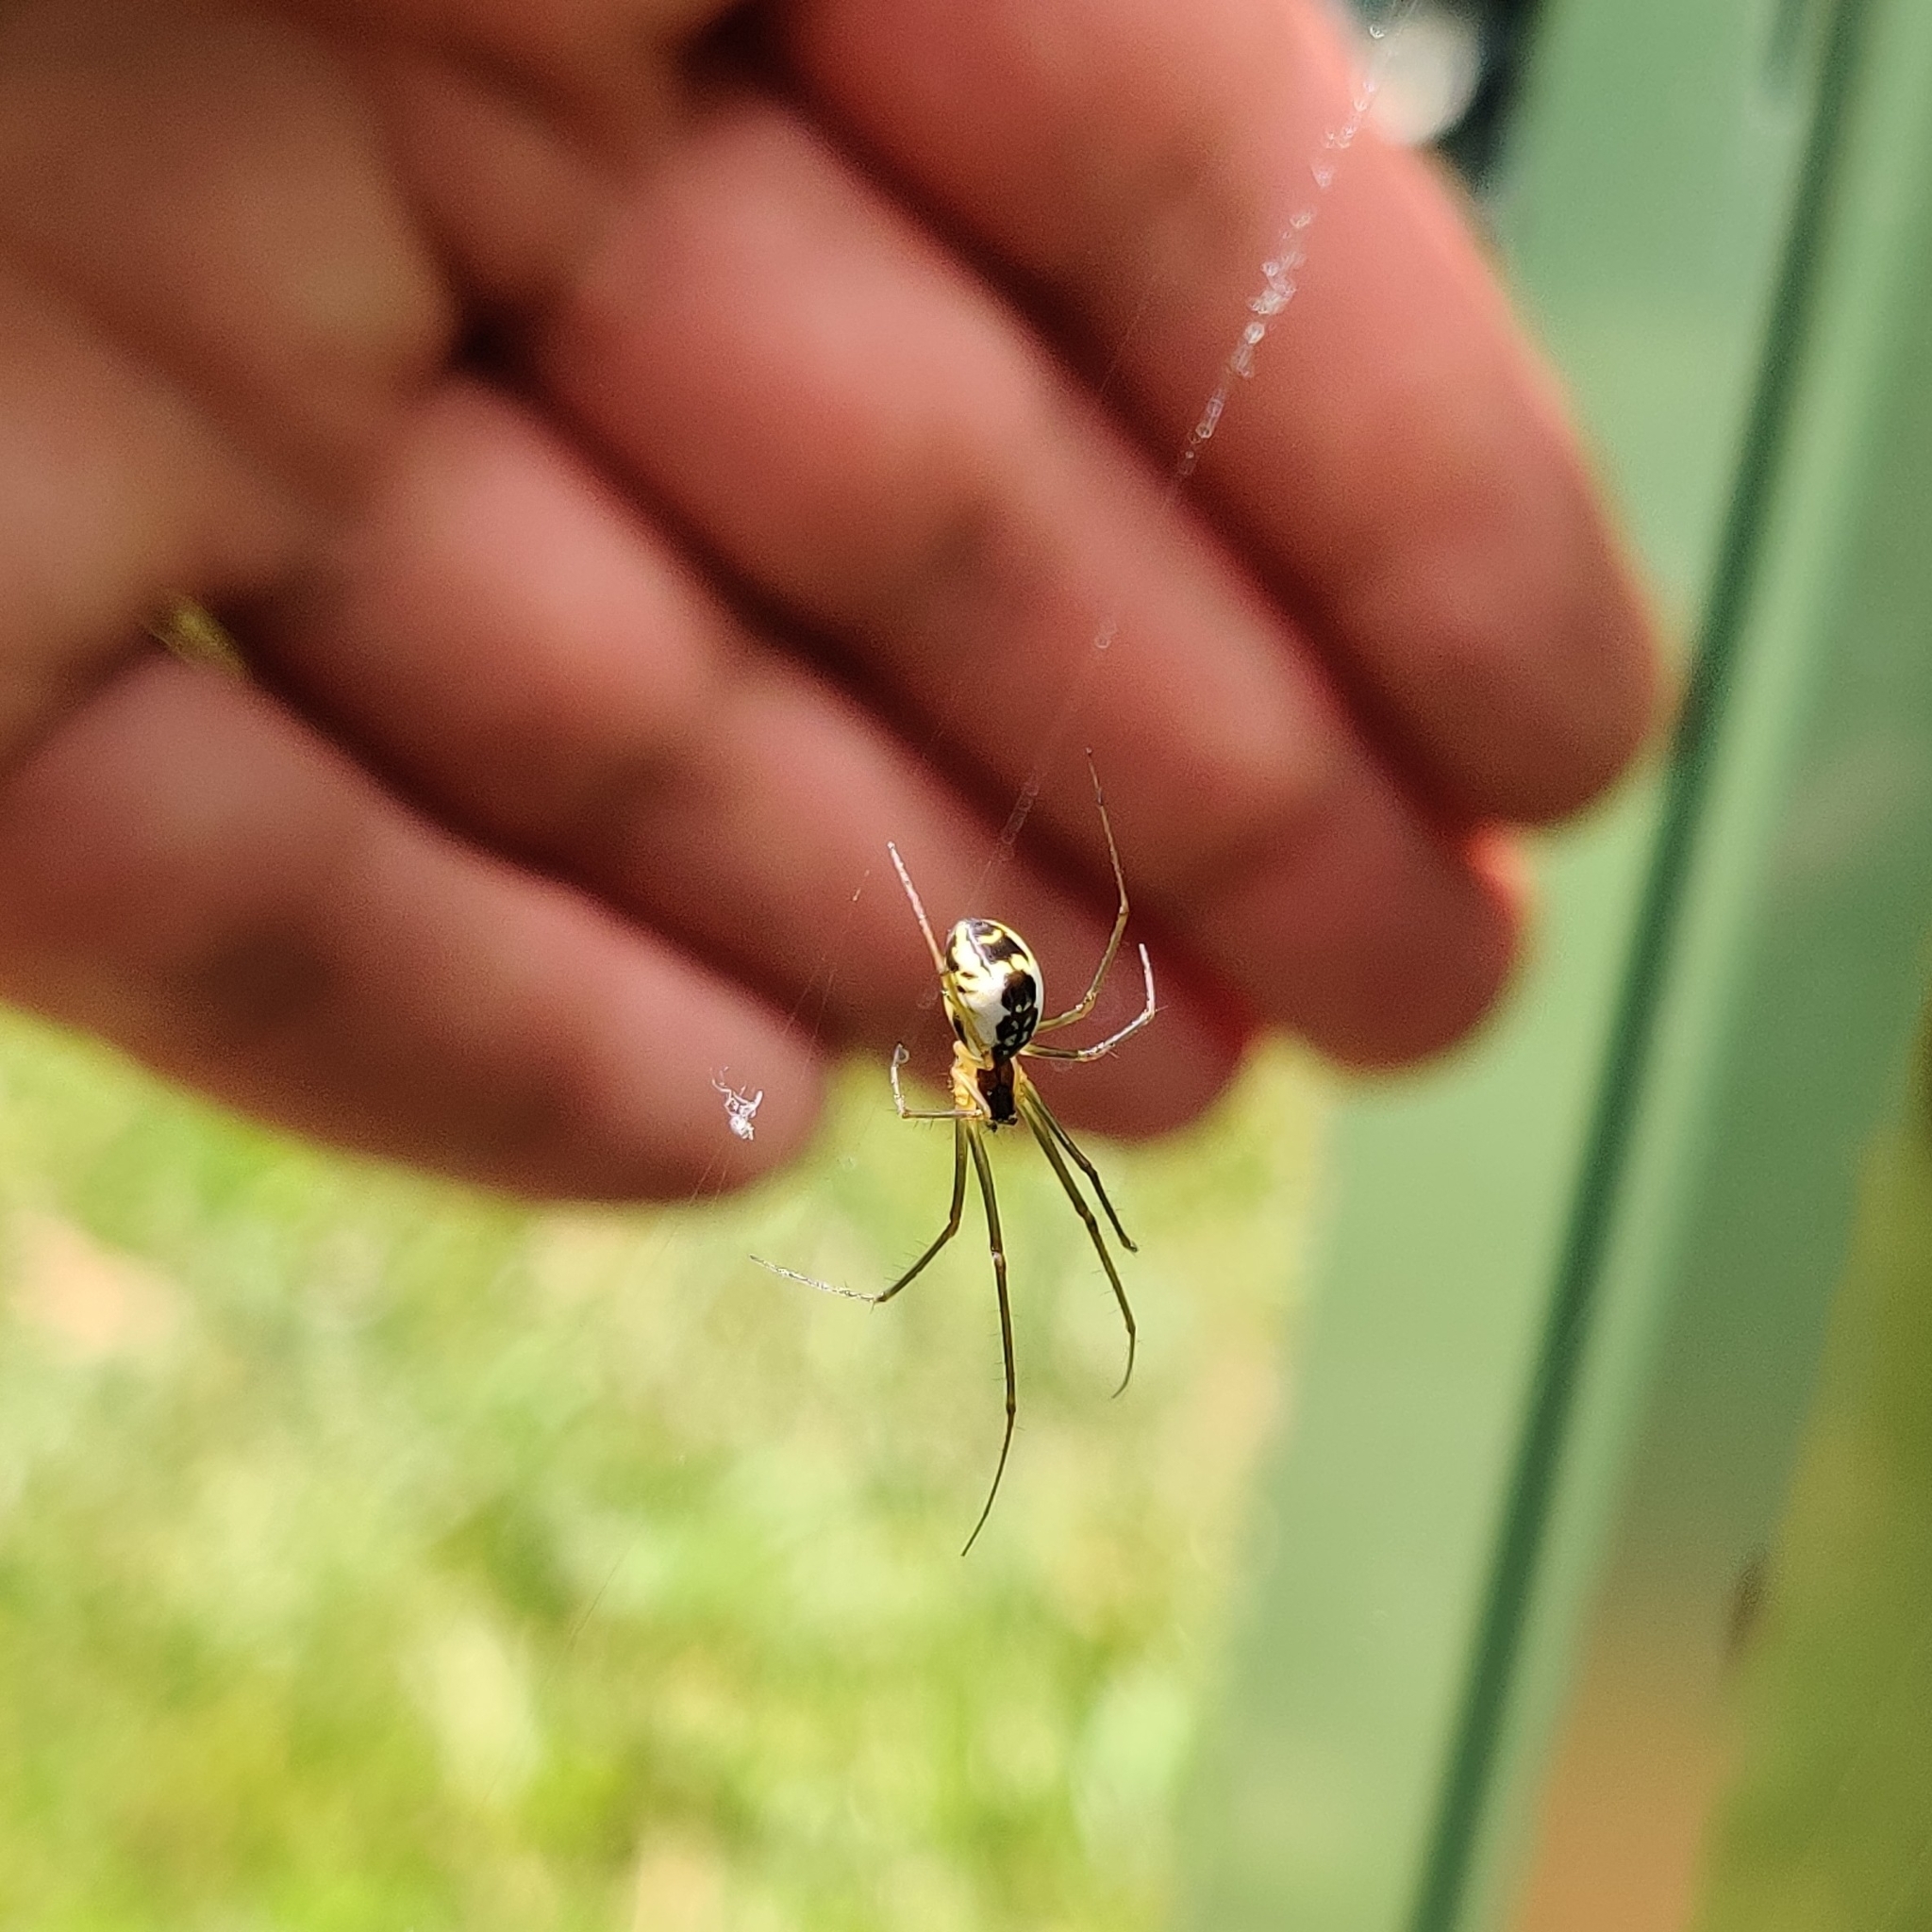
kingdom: Animalia
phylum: Arthropoda
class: Arachnida
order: Araneae
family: Linyphiidae
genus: Neriene
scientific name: Neriene radiata
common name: Filmy dome spider
